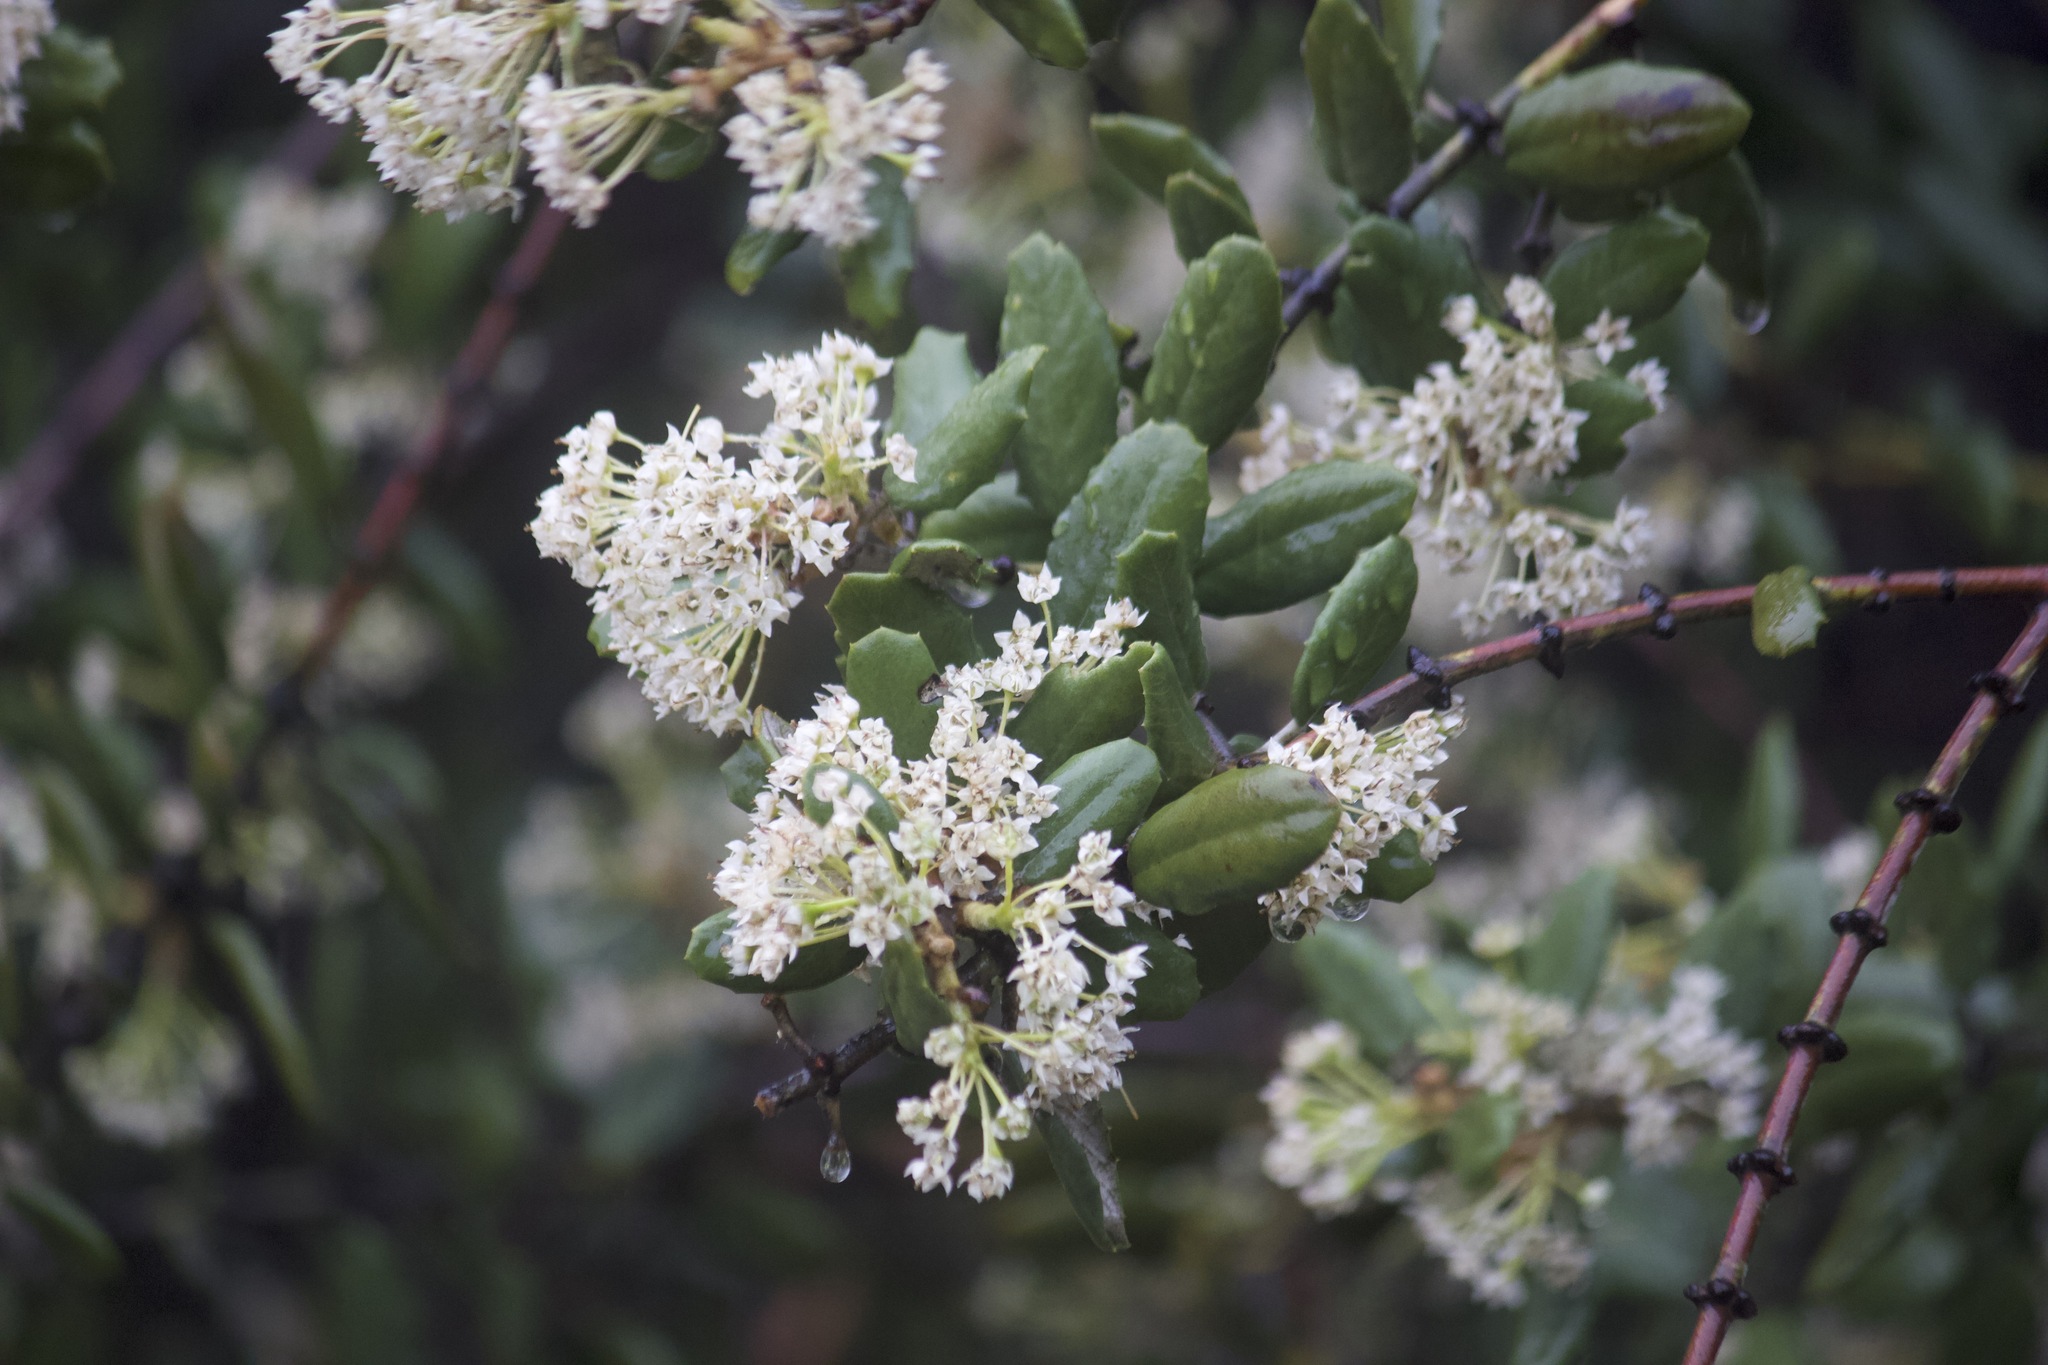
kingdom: Plantae
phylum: Tracheophyta
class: Magnoliopsida
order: Rosales
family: Rhamnaceae
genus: Ceanothus
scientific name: Ceanothus crassifolius
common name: Hoaryleaf ceanothus
